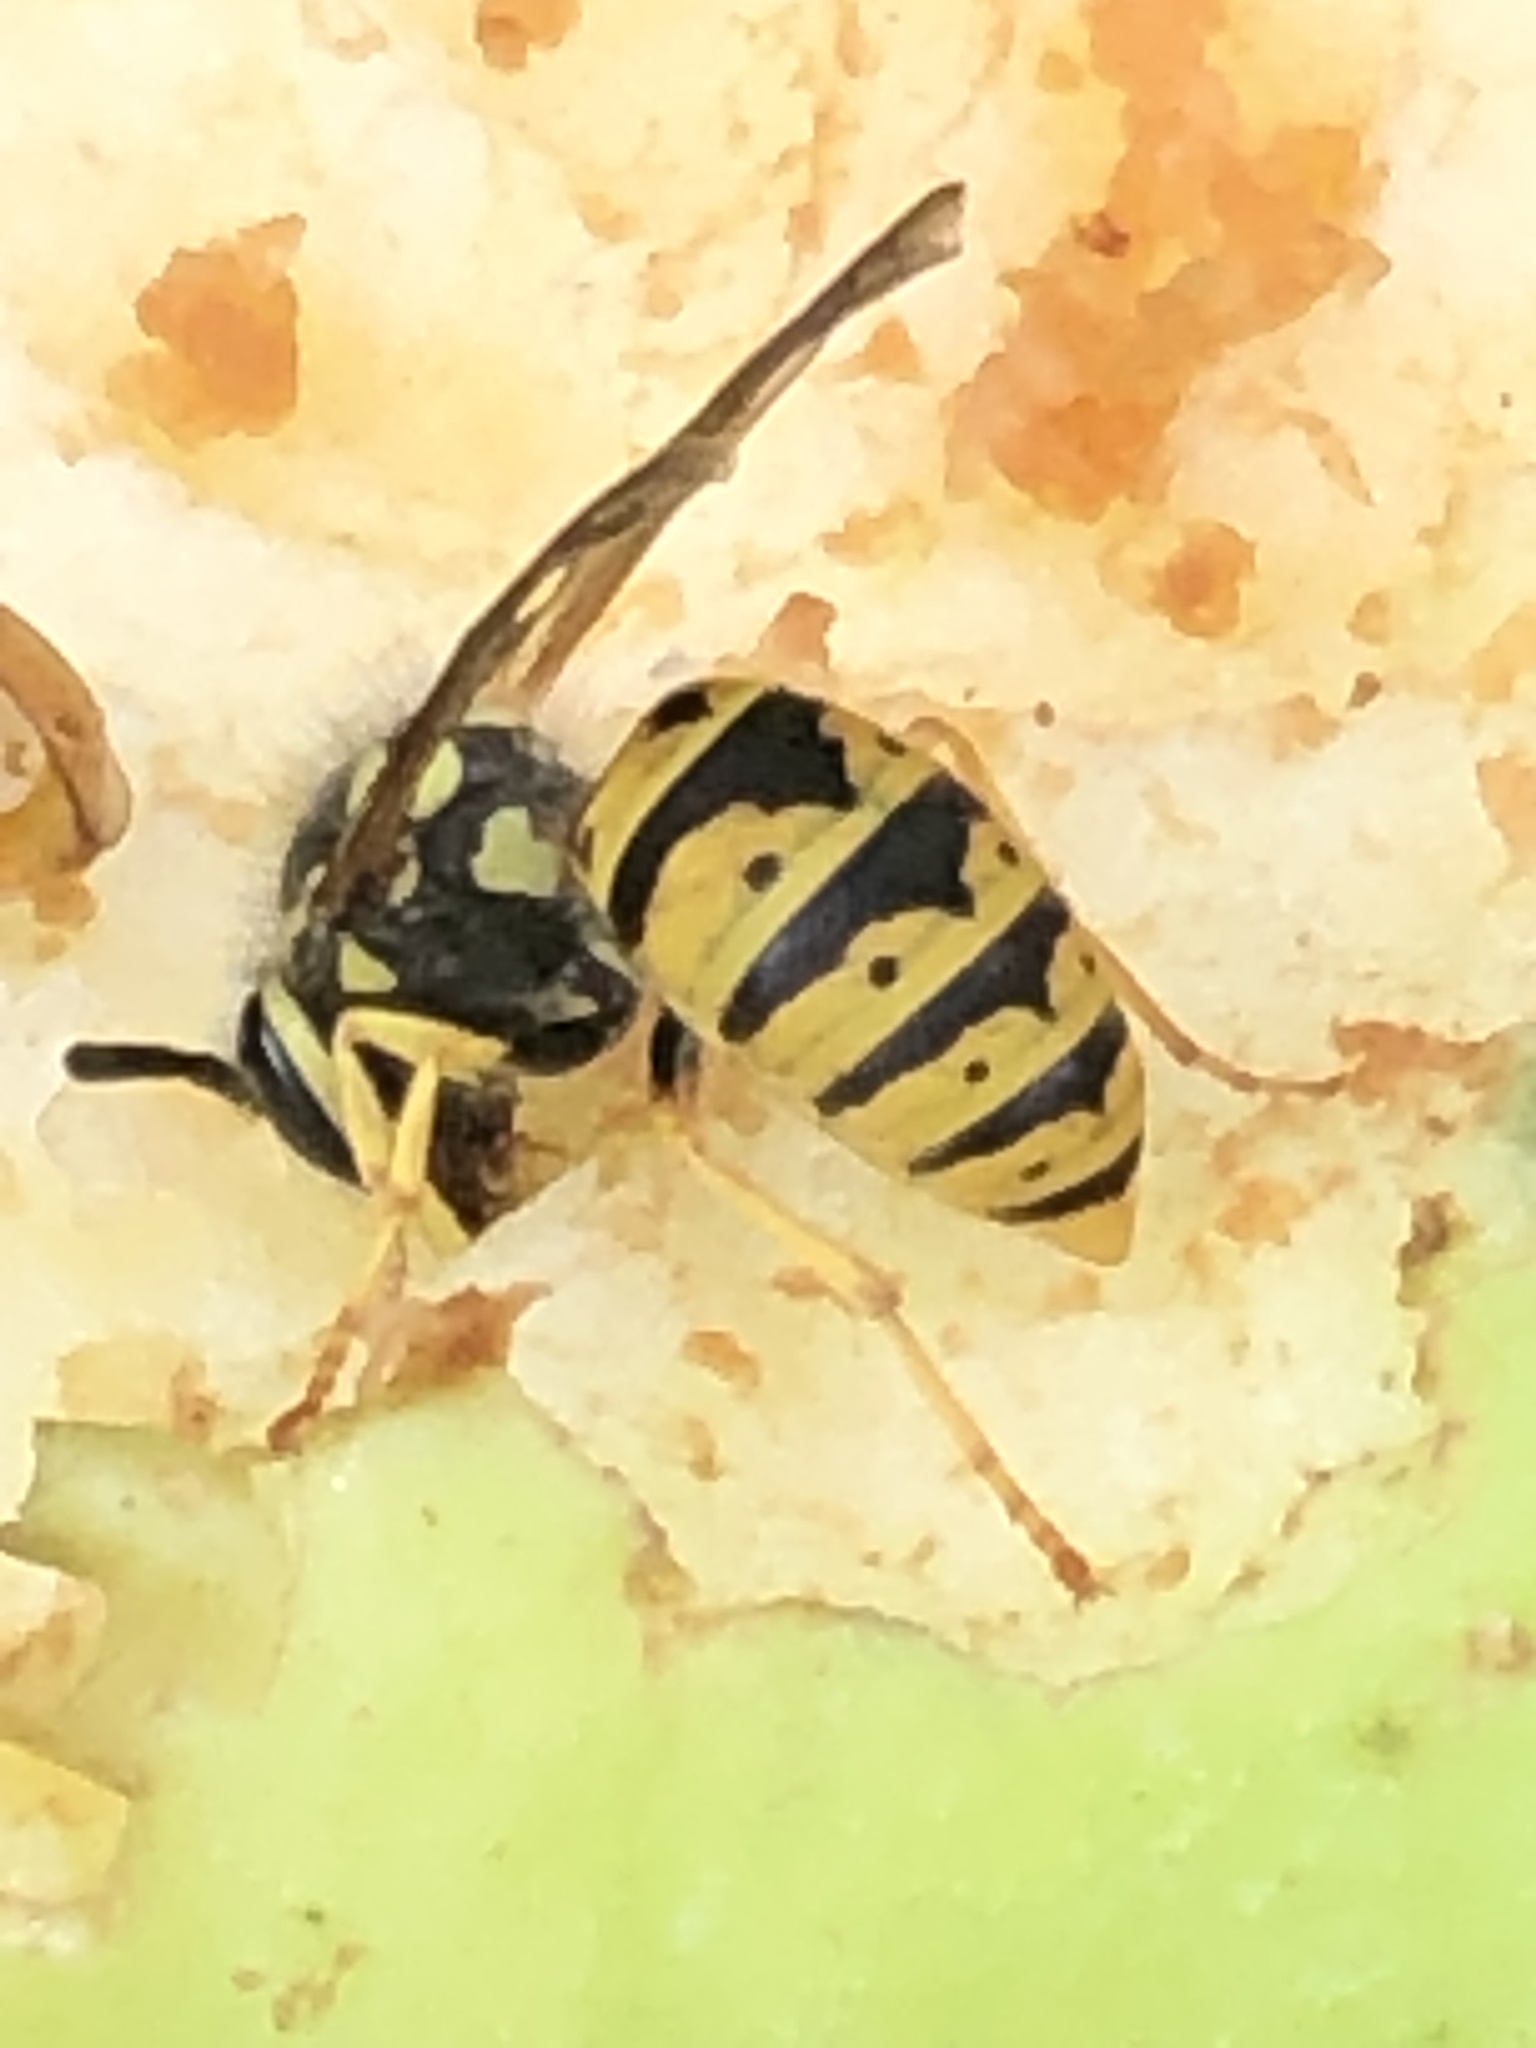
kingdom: Animalia
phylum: Arthropoda
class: Insecta
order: Hymenoptera
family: Vespidae
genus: Vespula
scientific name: Vespula germanica
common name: German wasp
